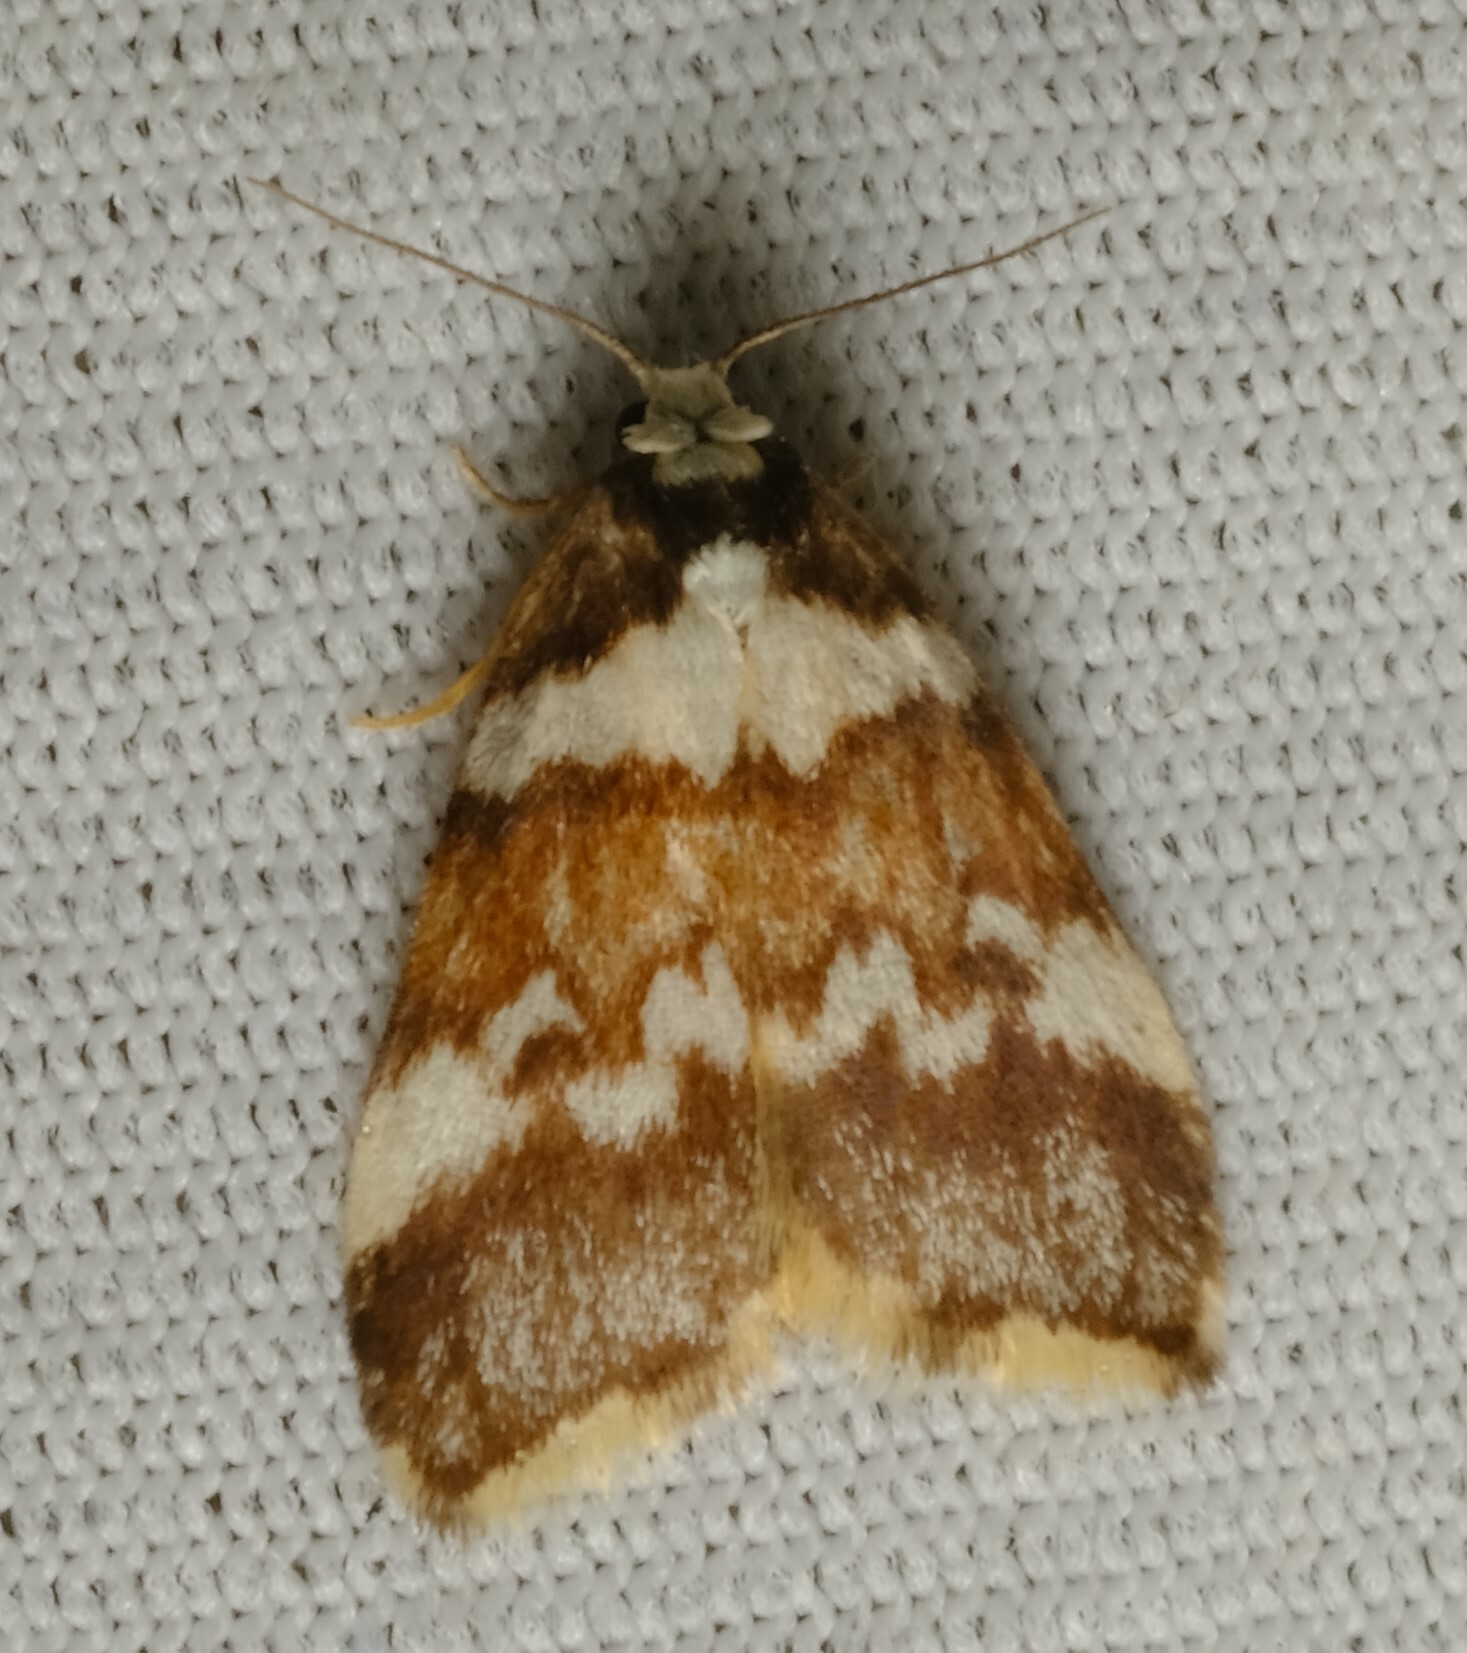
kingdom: Animalia
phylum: Arthropoda
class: Insecta
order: Lepidoptera
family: Erebidae
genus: Halone
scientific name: Halone sejuncta
